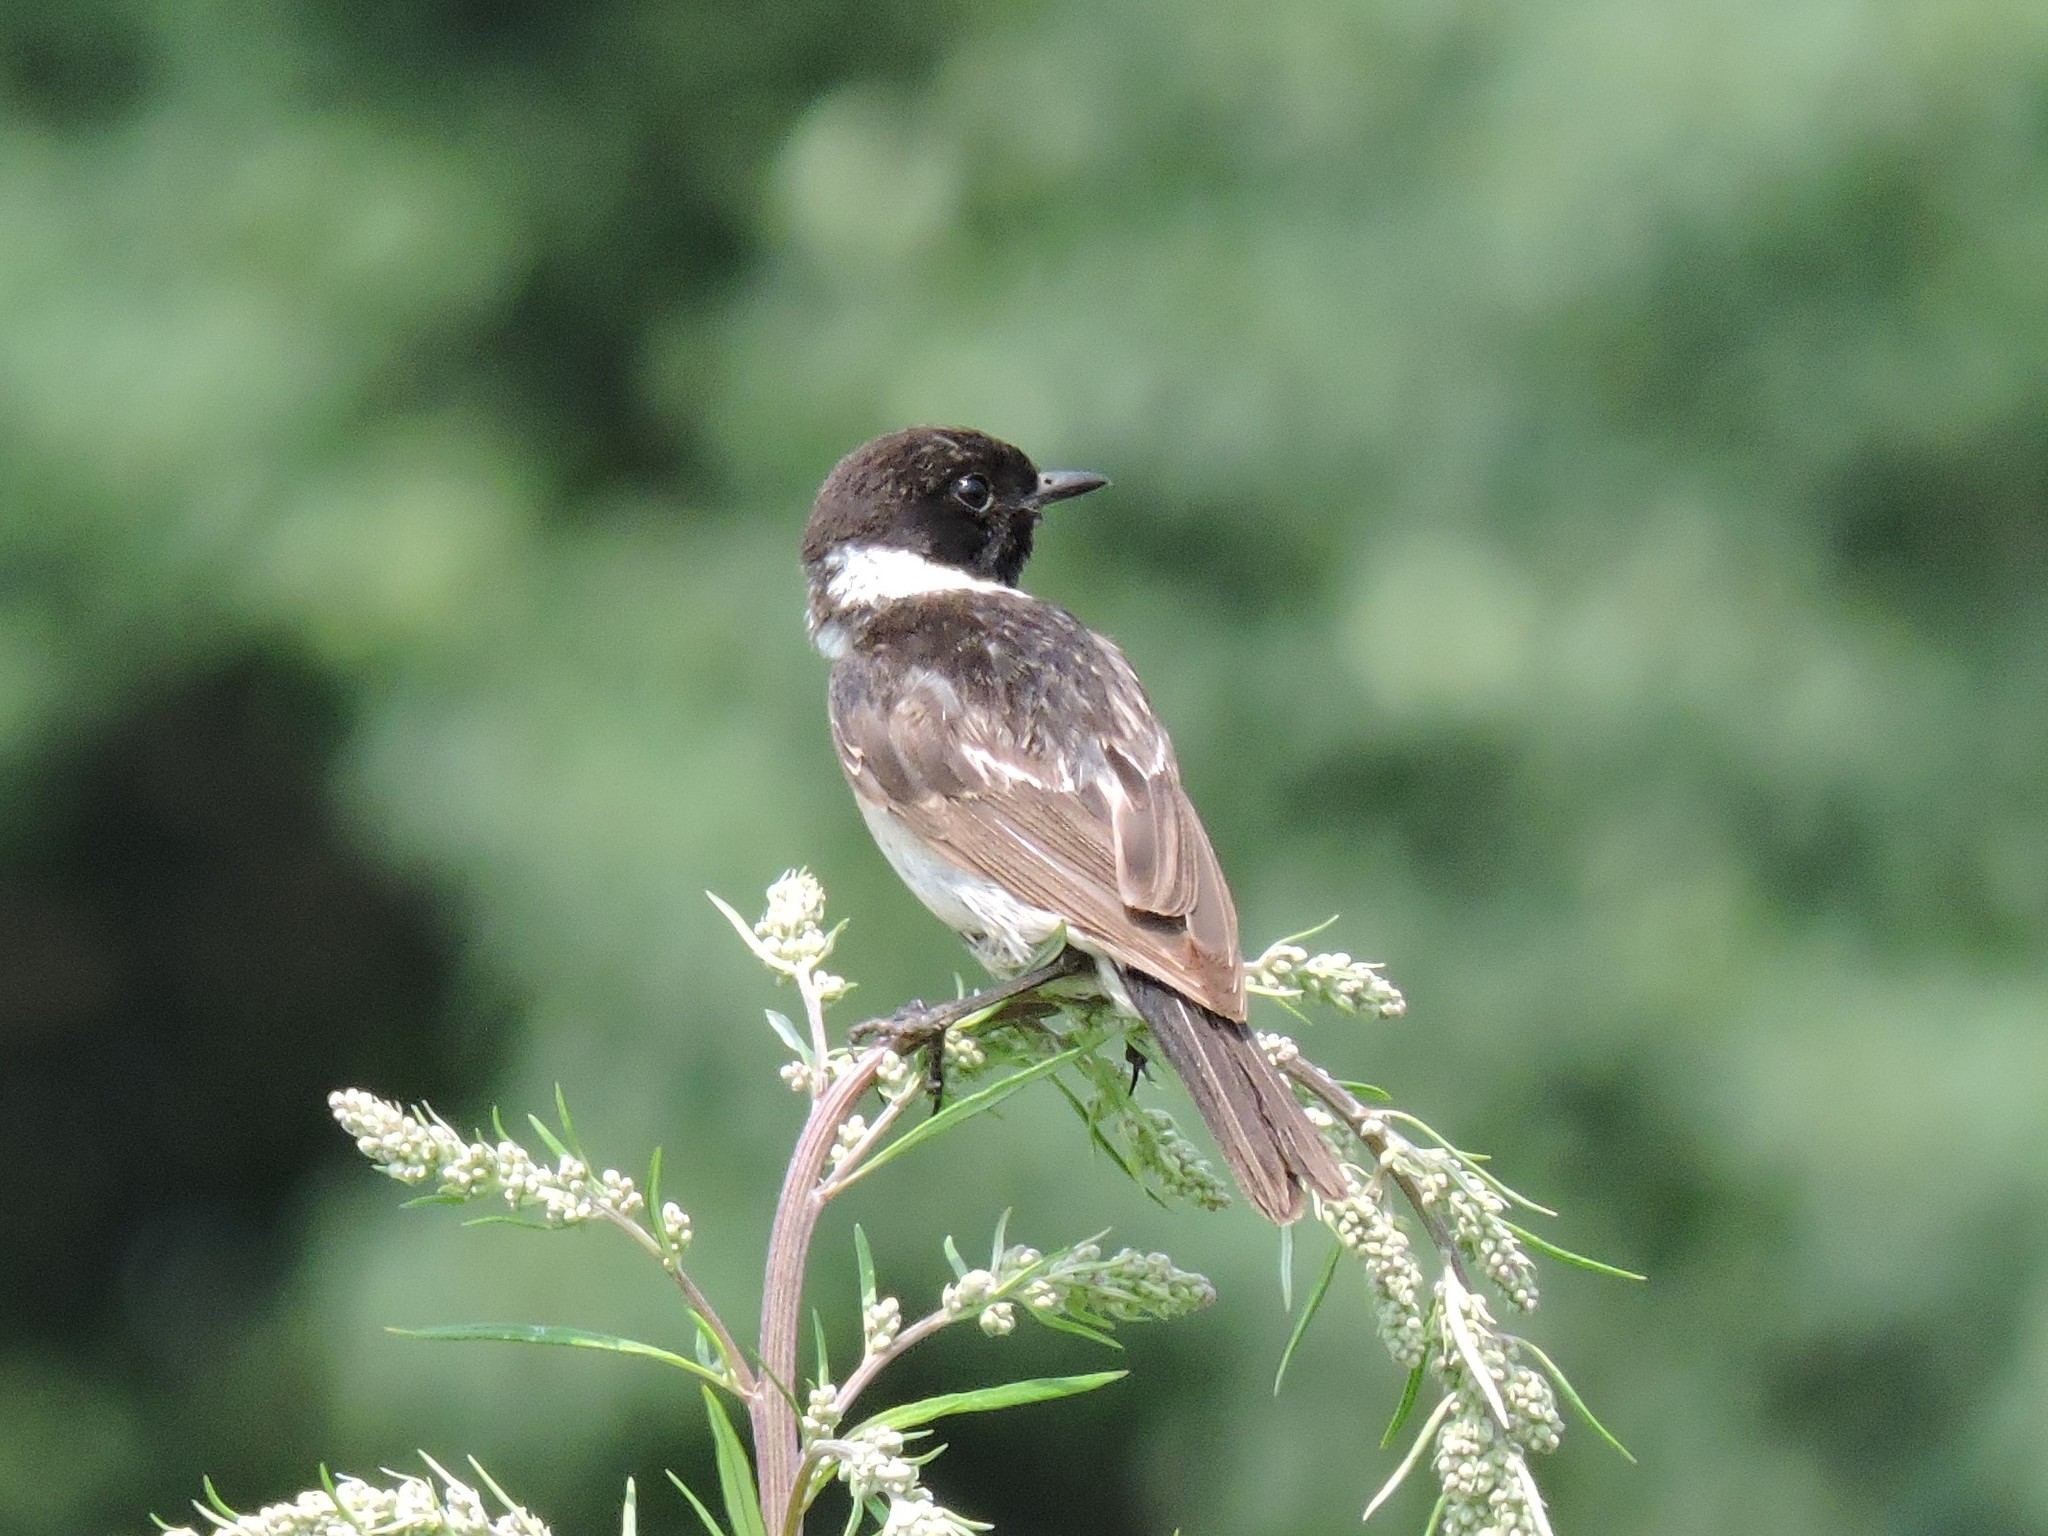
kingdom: Animalia
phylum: Chordata
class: Aves
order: Passeriformes
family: Muscicapidae
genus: Saxicola
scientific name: Saxicola maurus
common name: Siberian stonechat
